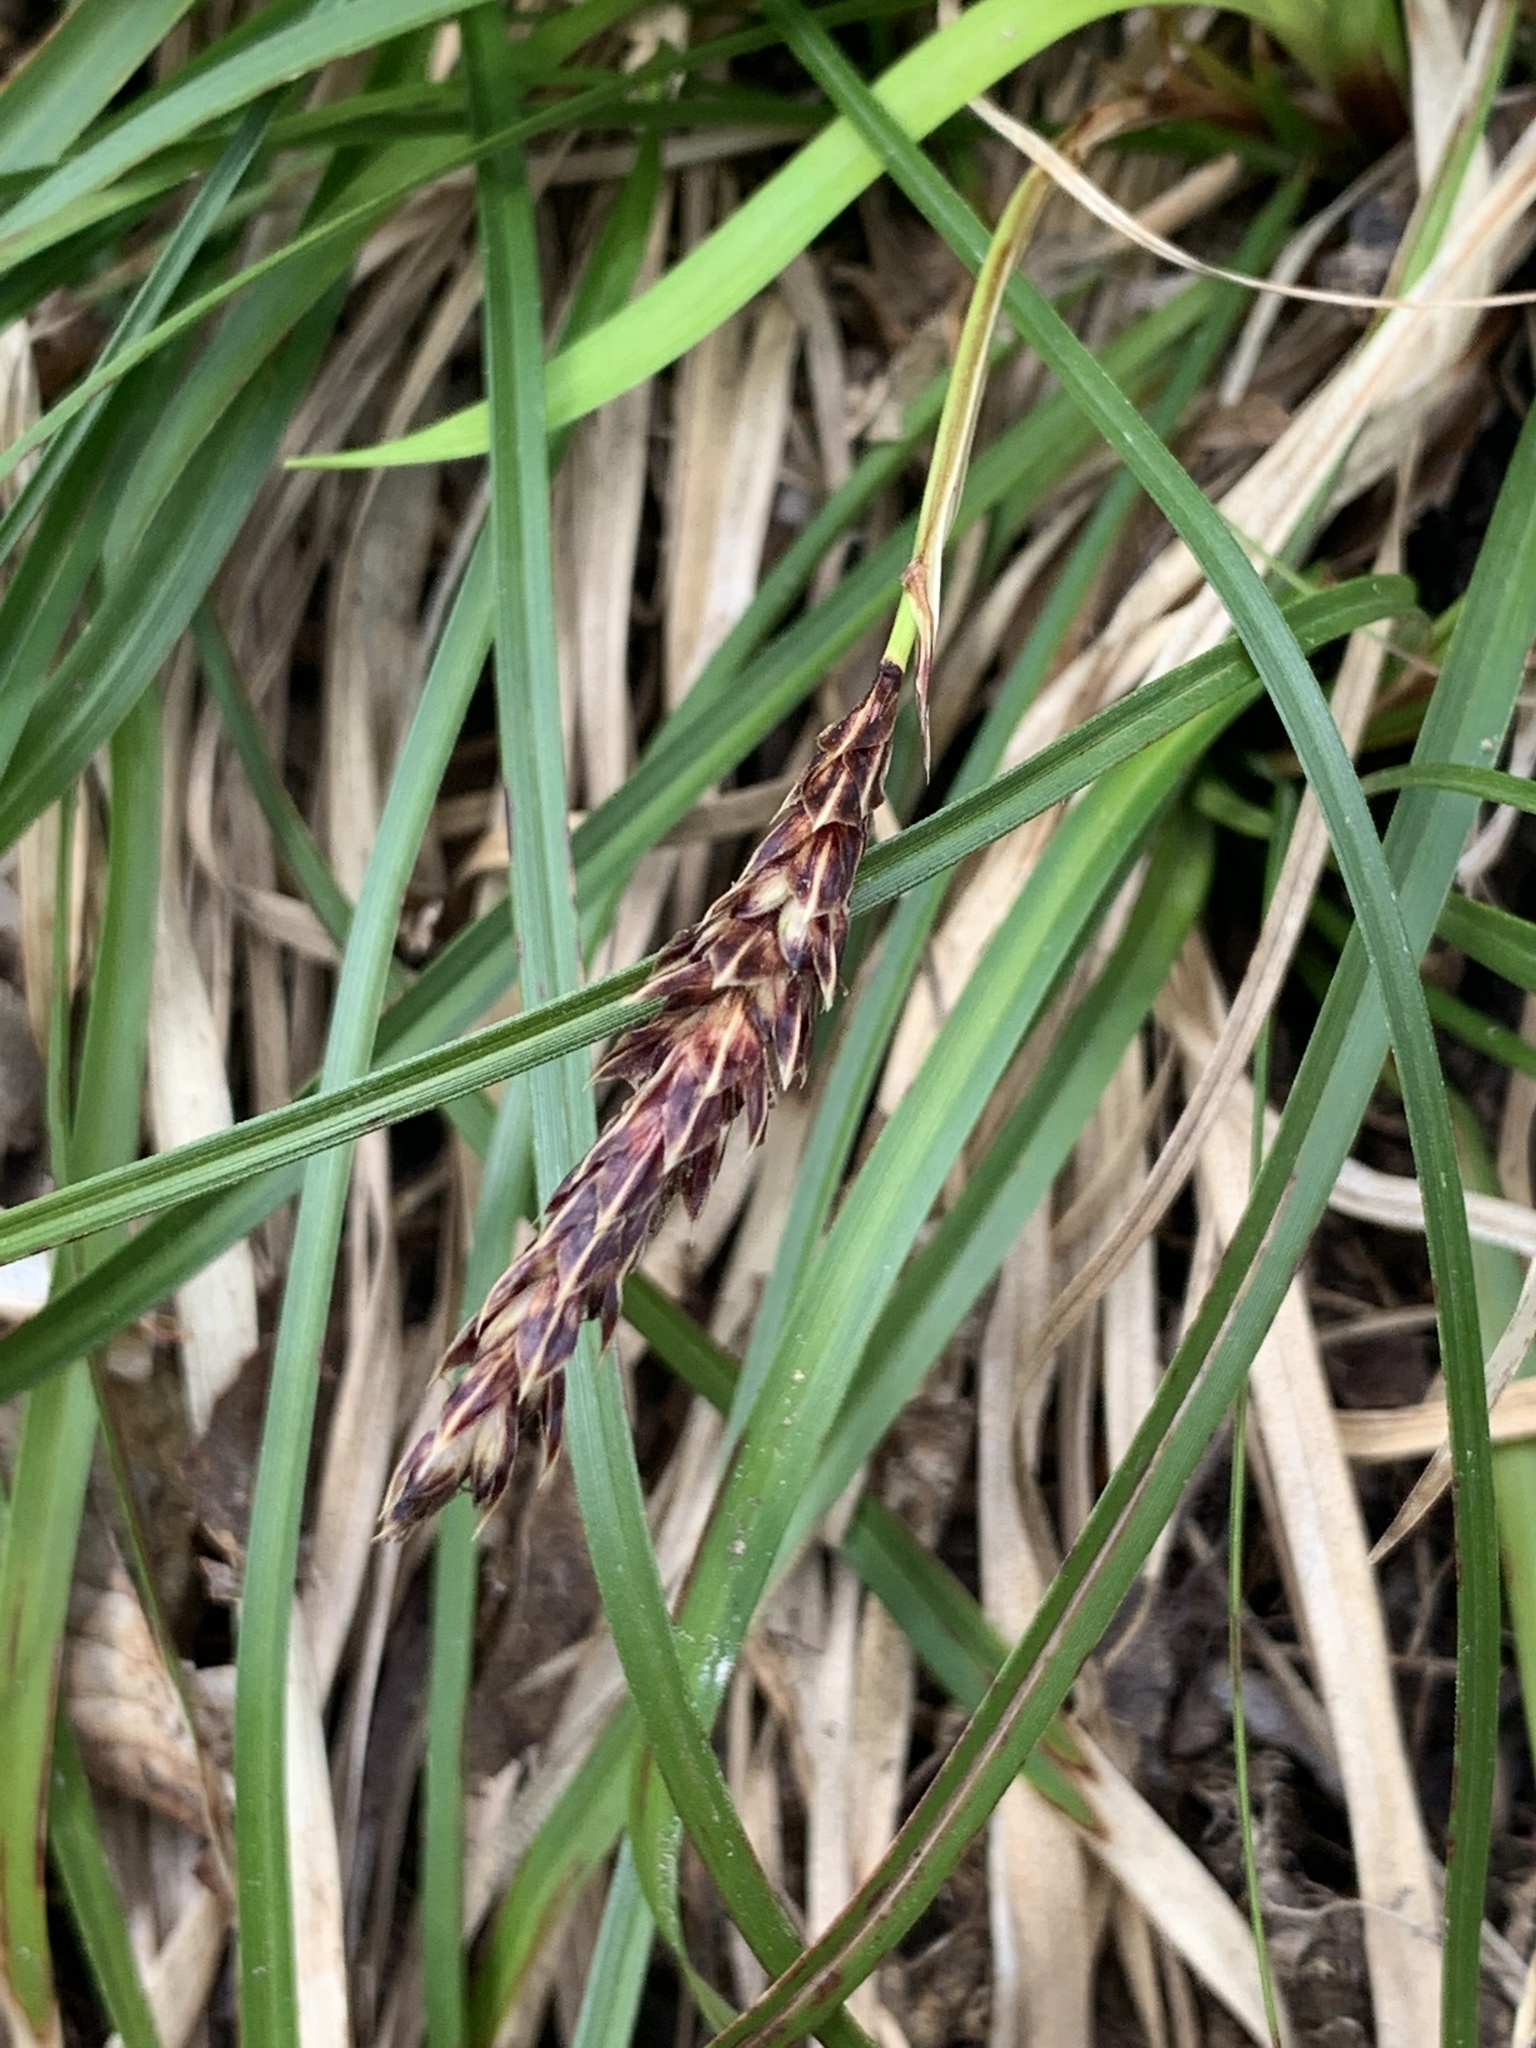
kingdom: Plantae
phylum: Tracheophyta
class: Liliopsida
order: Poales
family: Cyperaceae
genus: Carex
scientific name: Carex picta
